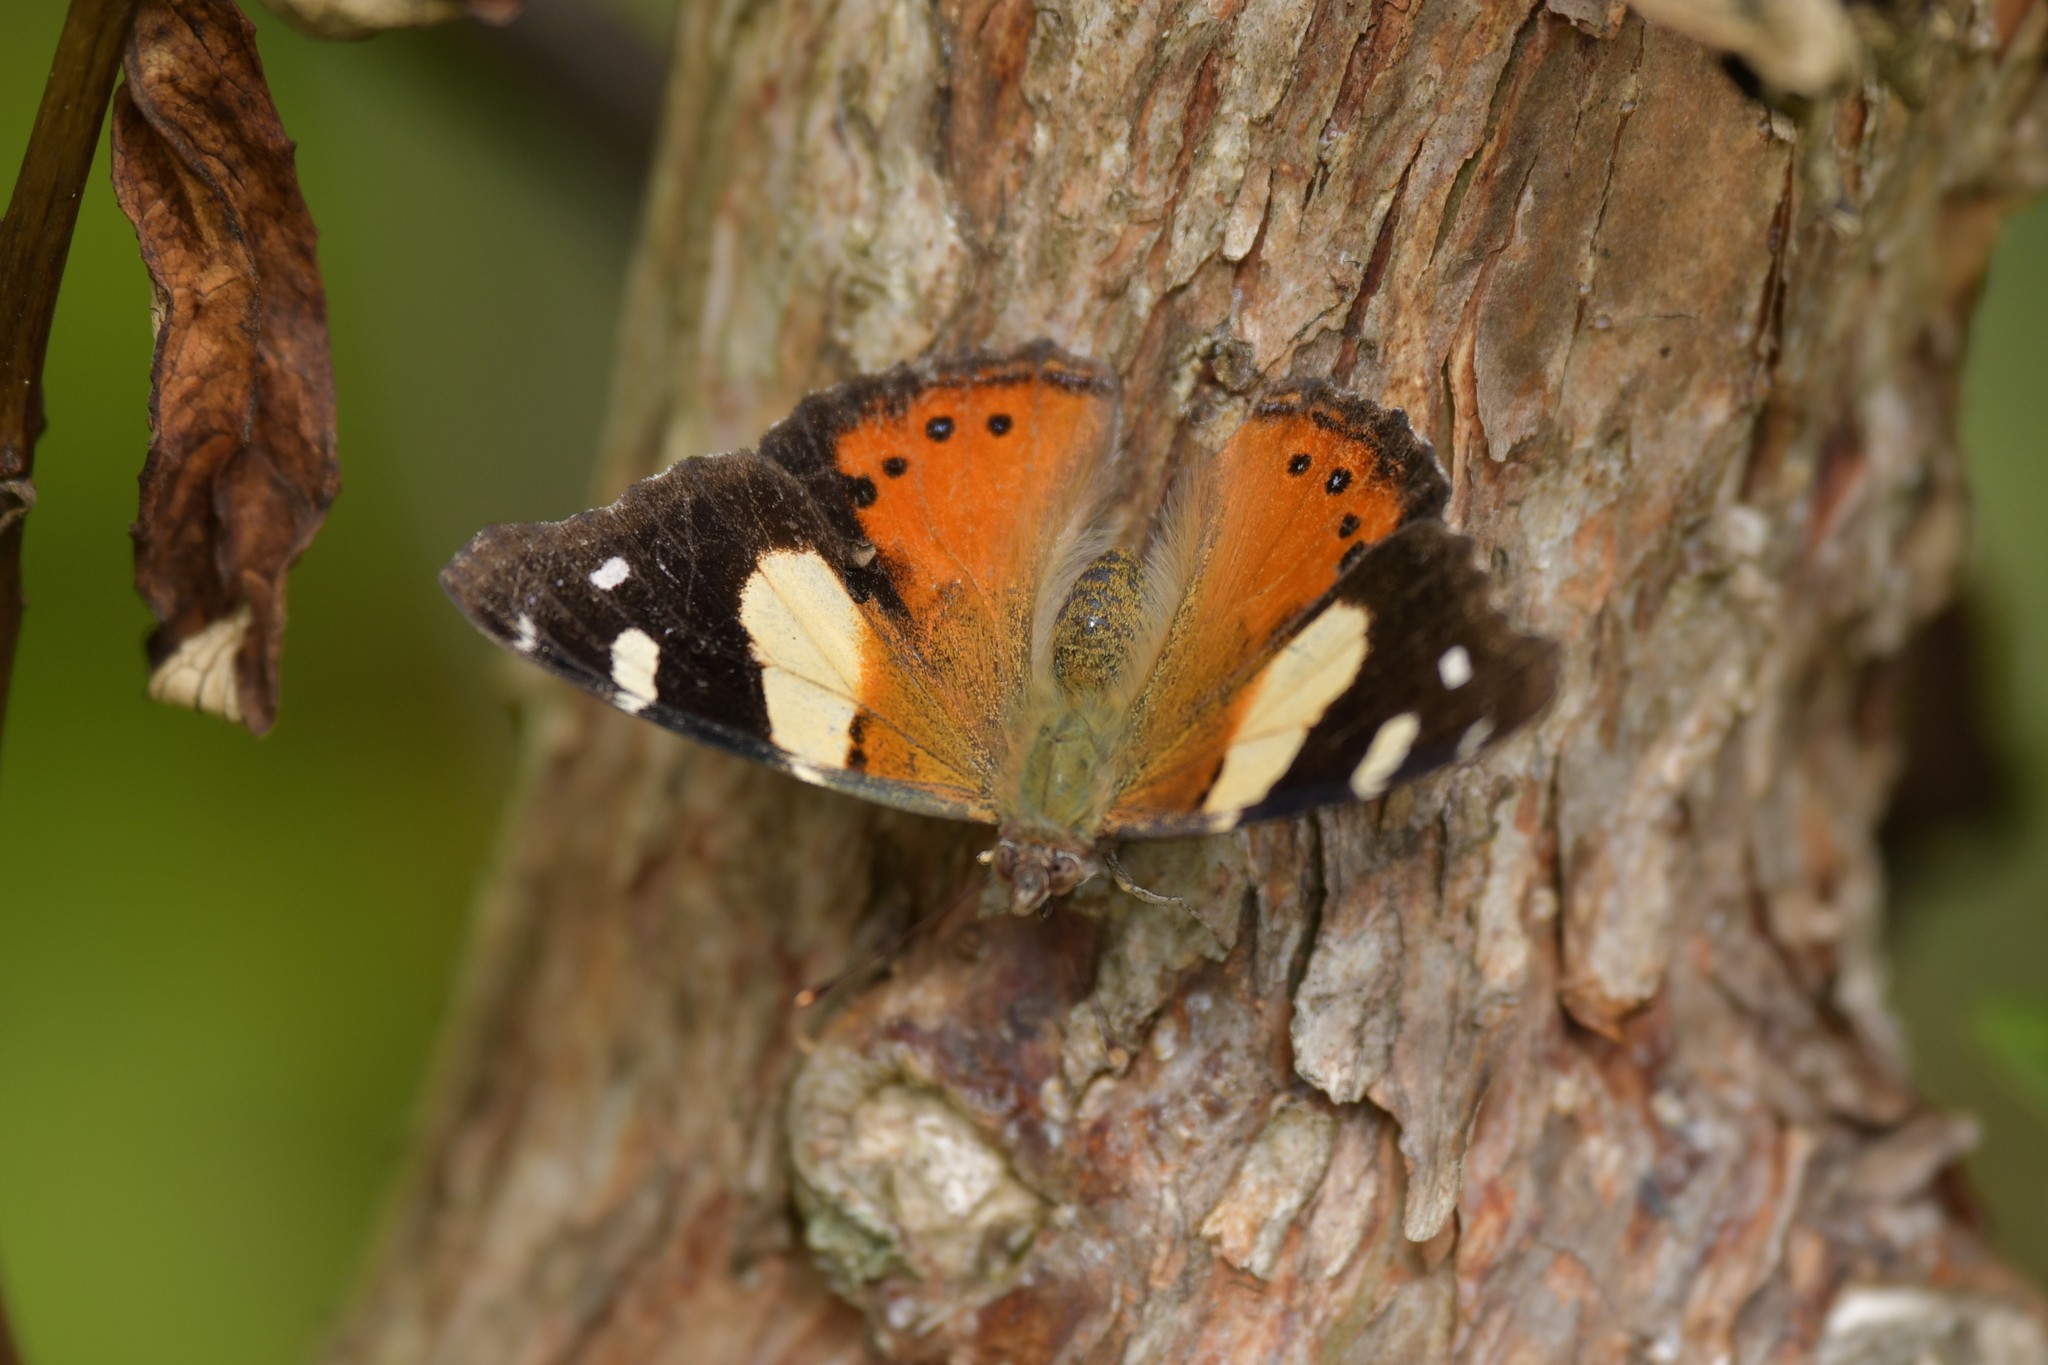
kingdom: Animalia
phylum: Arthropoda
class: Insecta
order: Lepidoptera
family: Nymphalidae
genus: Vanessa
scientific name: Vanessa itea
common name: Yellow admiral
